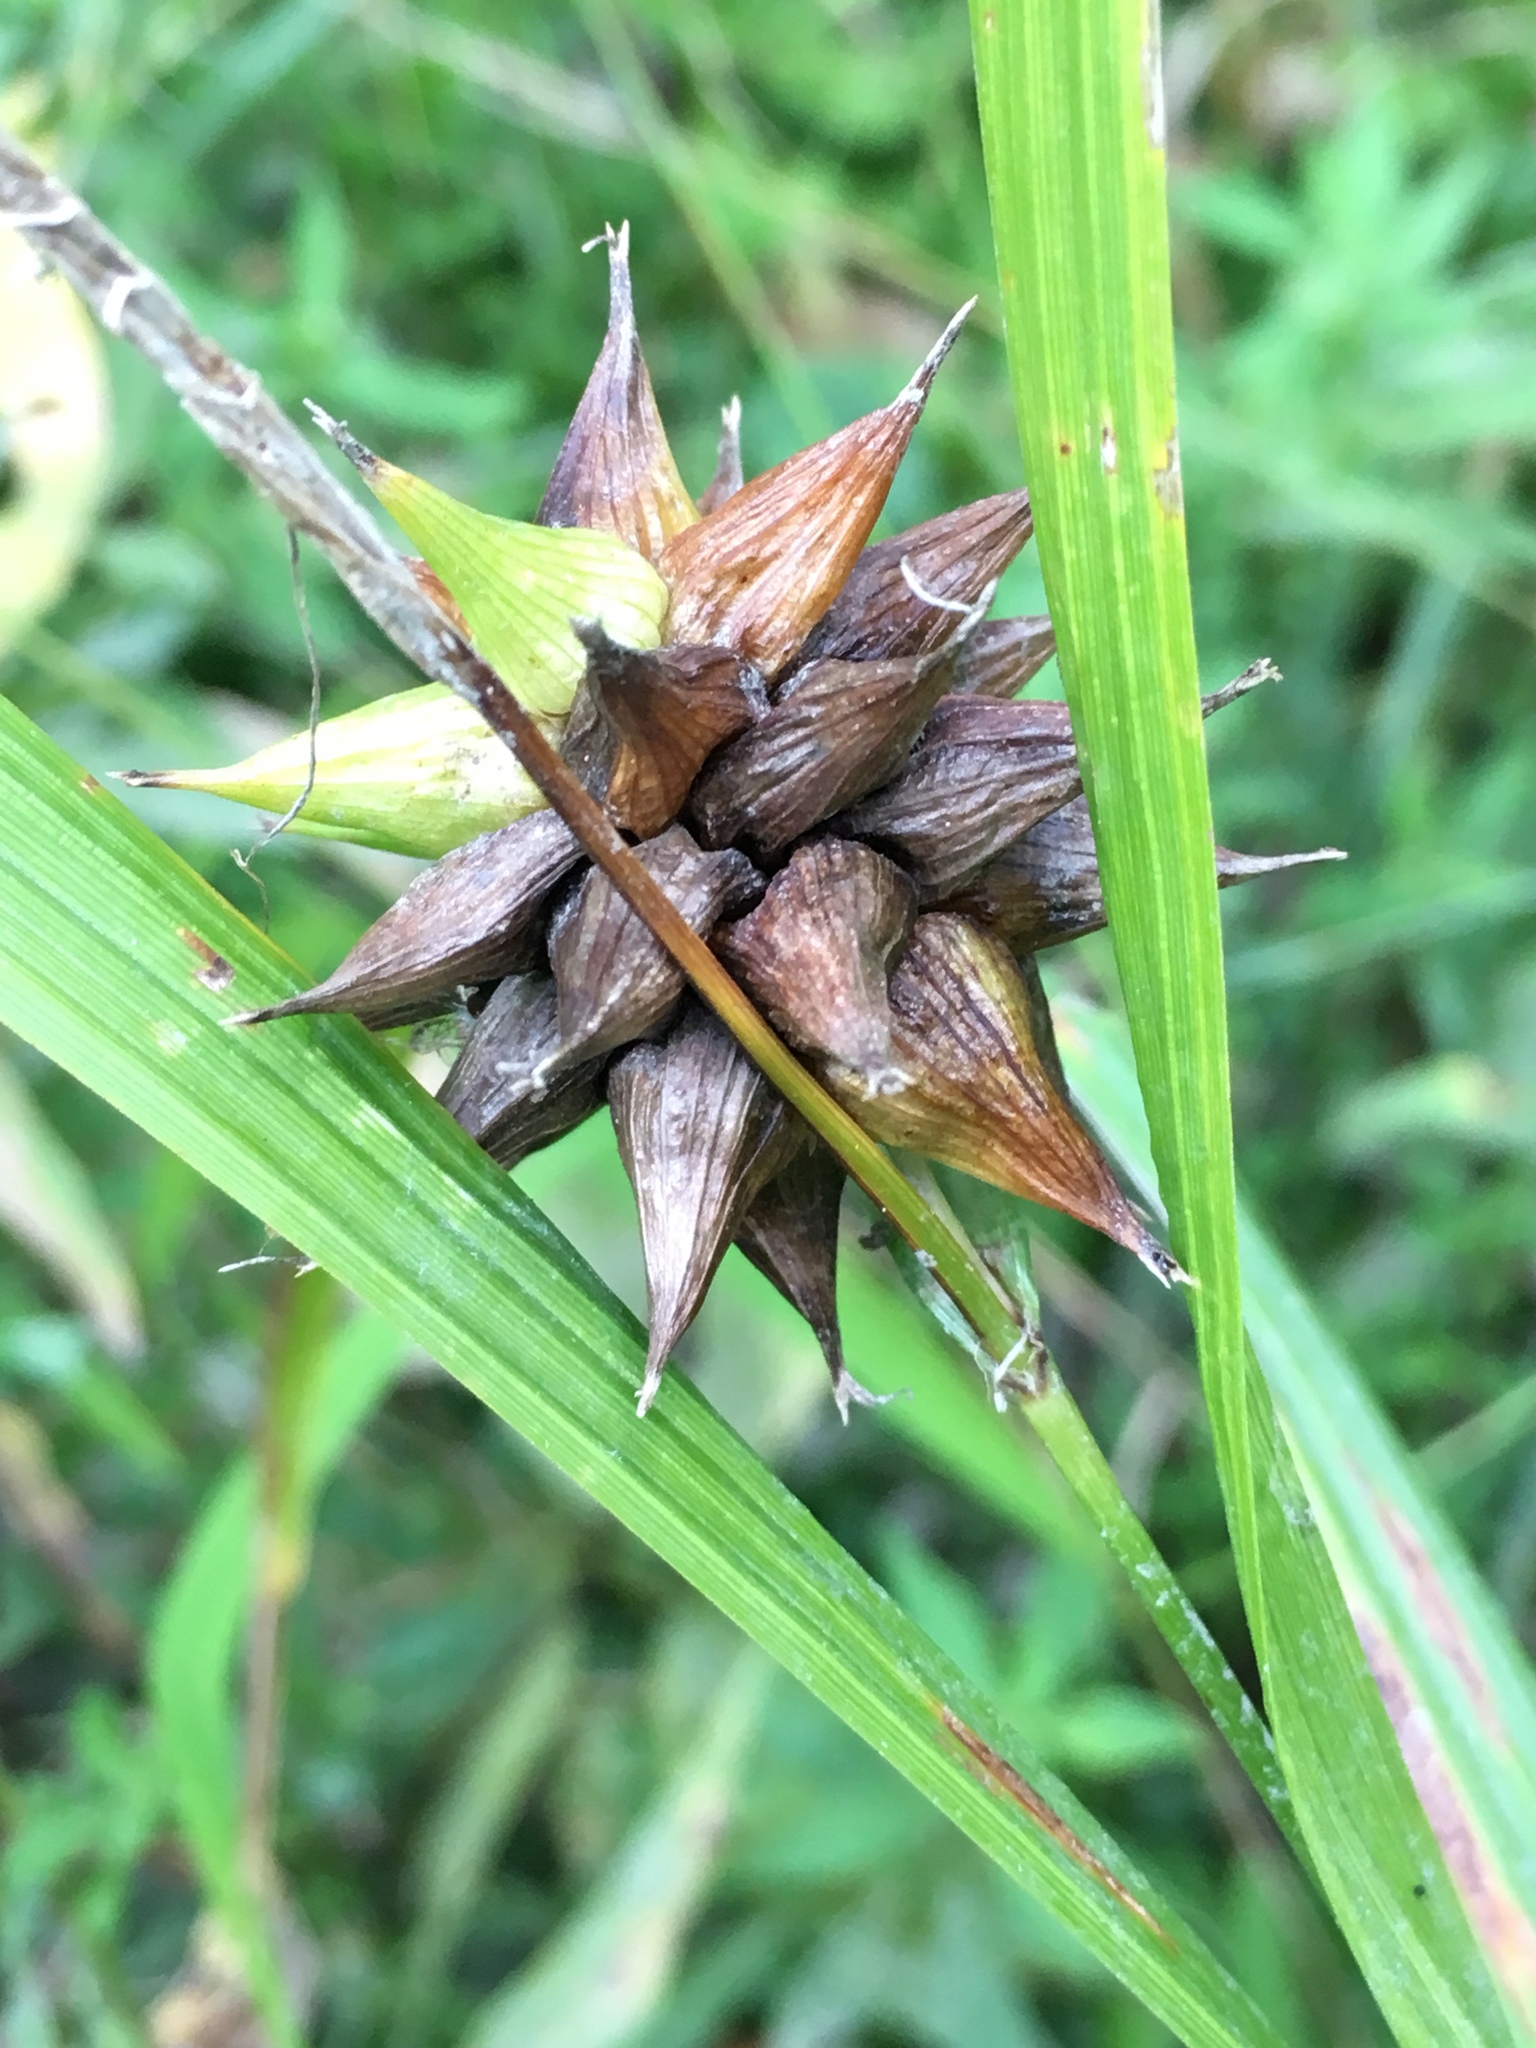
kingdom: Plantae
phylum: Tracheophyta
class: Liliopsida
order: Poales
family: Cyperaceae
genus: Carex
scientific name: Carex grayi
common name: Asa gray's sedge
